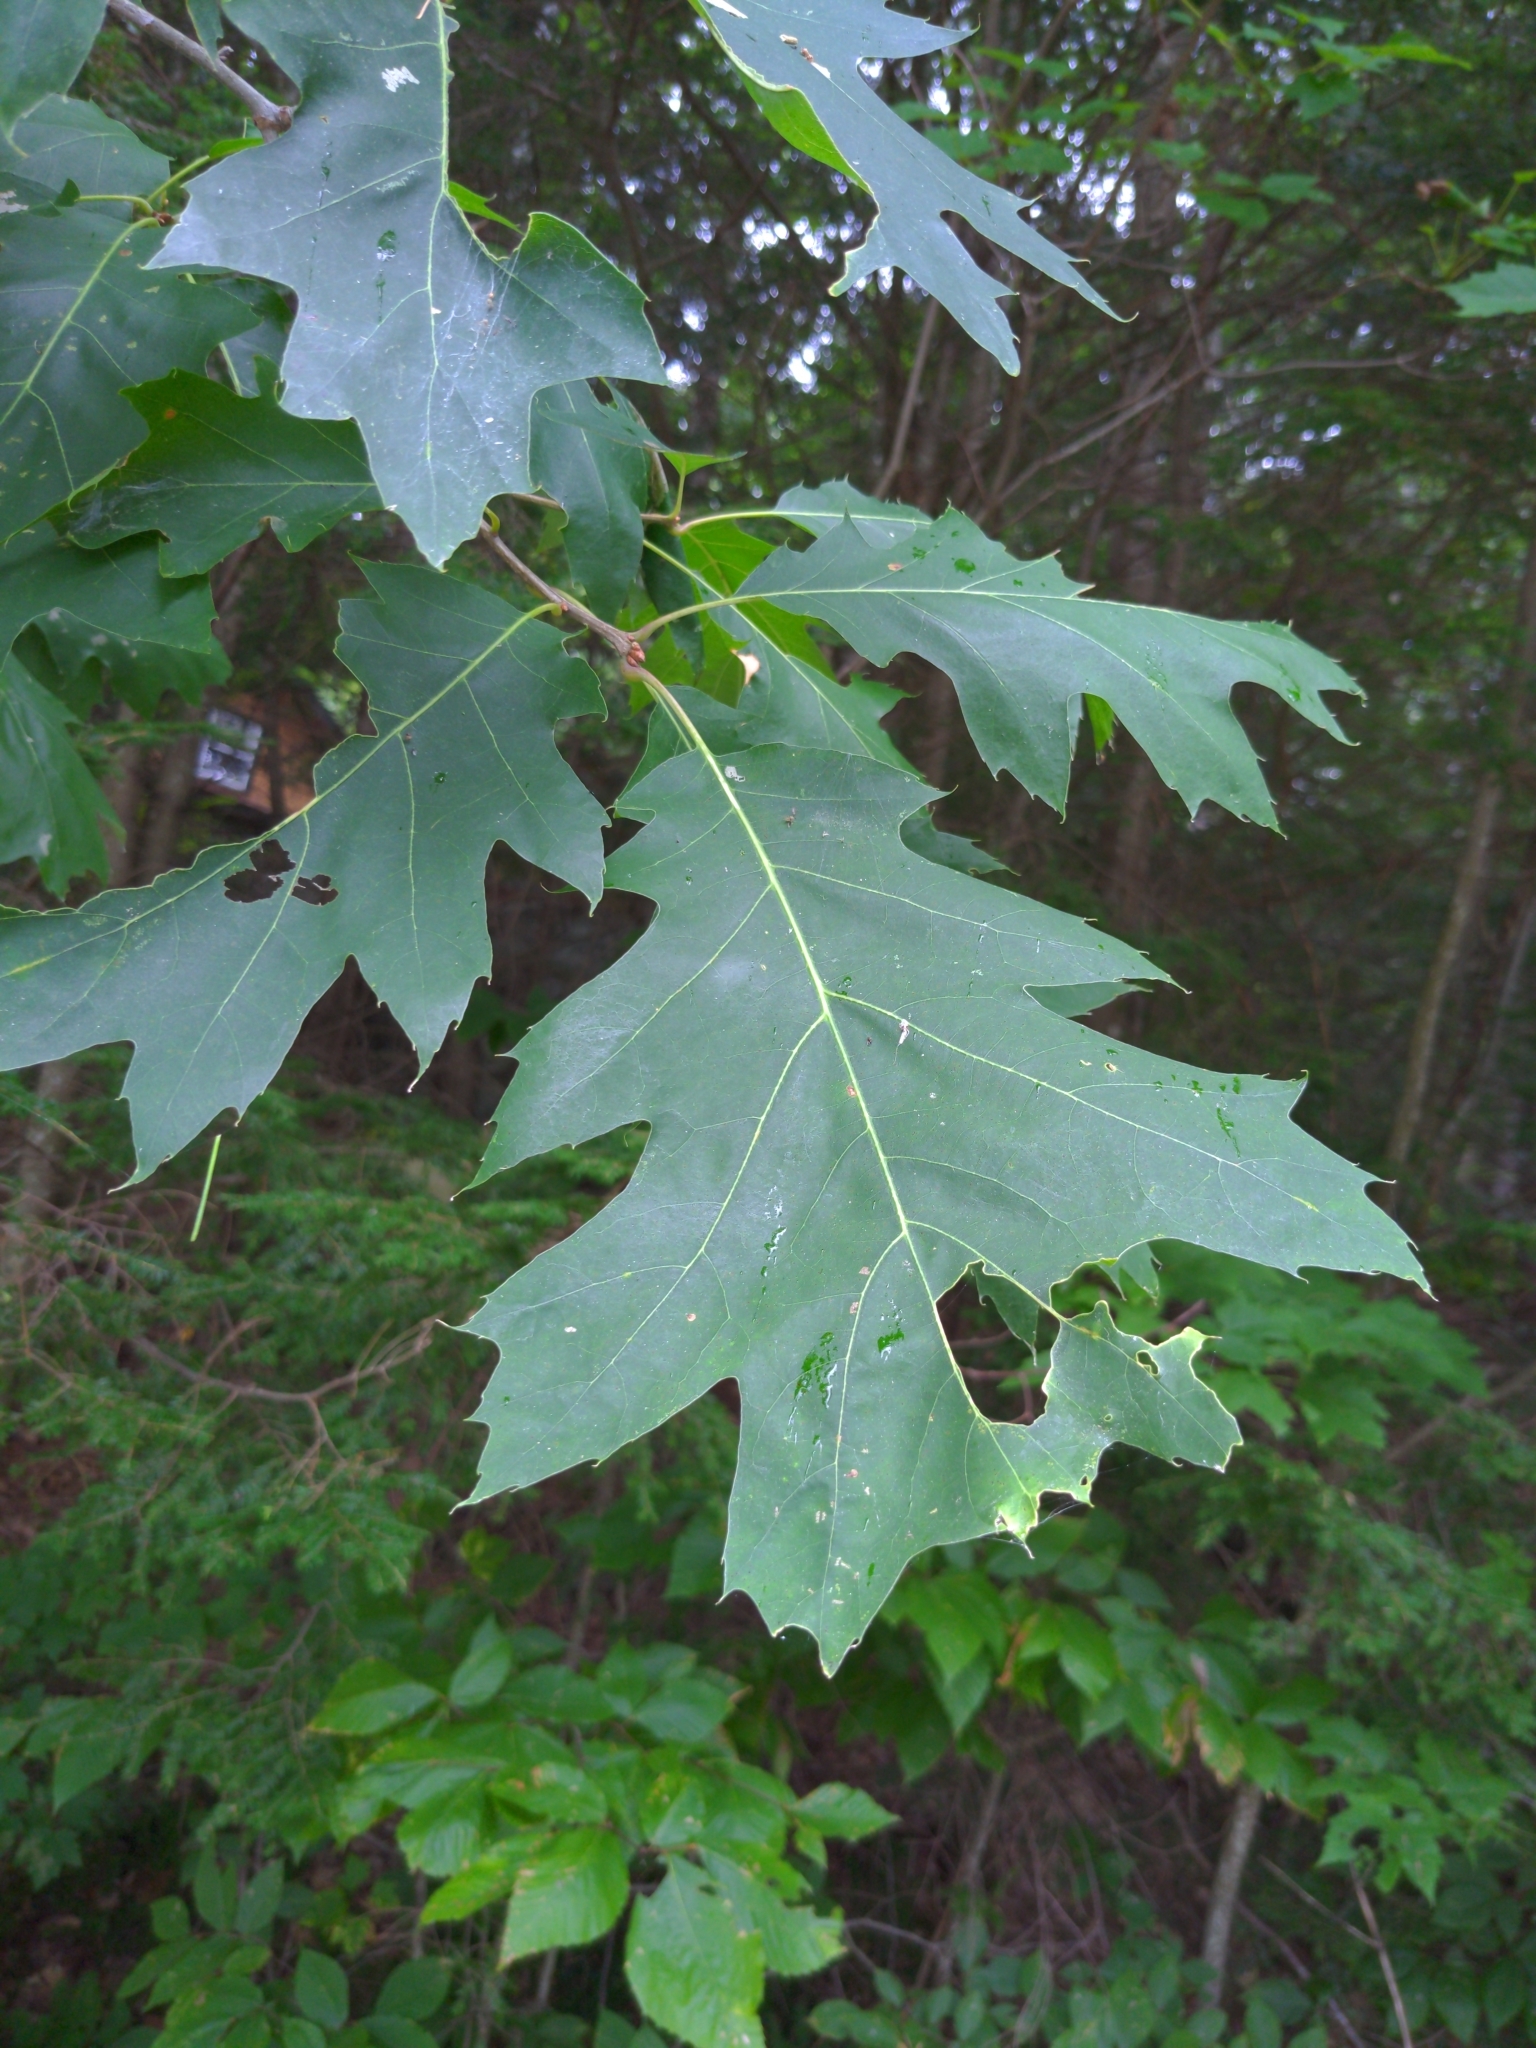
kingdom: Plantae
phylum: Tracheophyta
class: Magnoliopsida
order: Fagales
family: Fagaceae
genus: Quercus
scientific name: Quercus rubra
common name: Red oak
